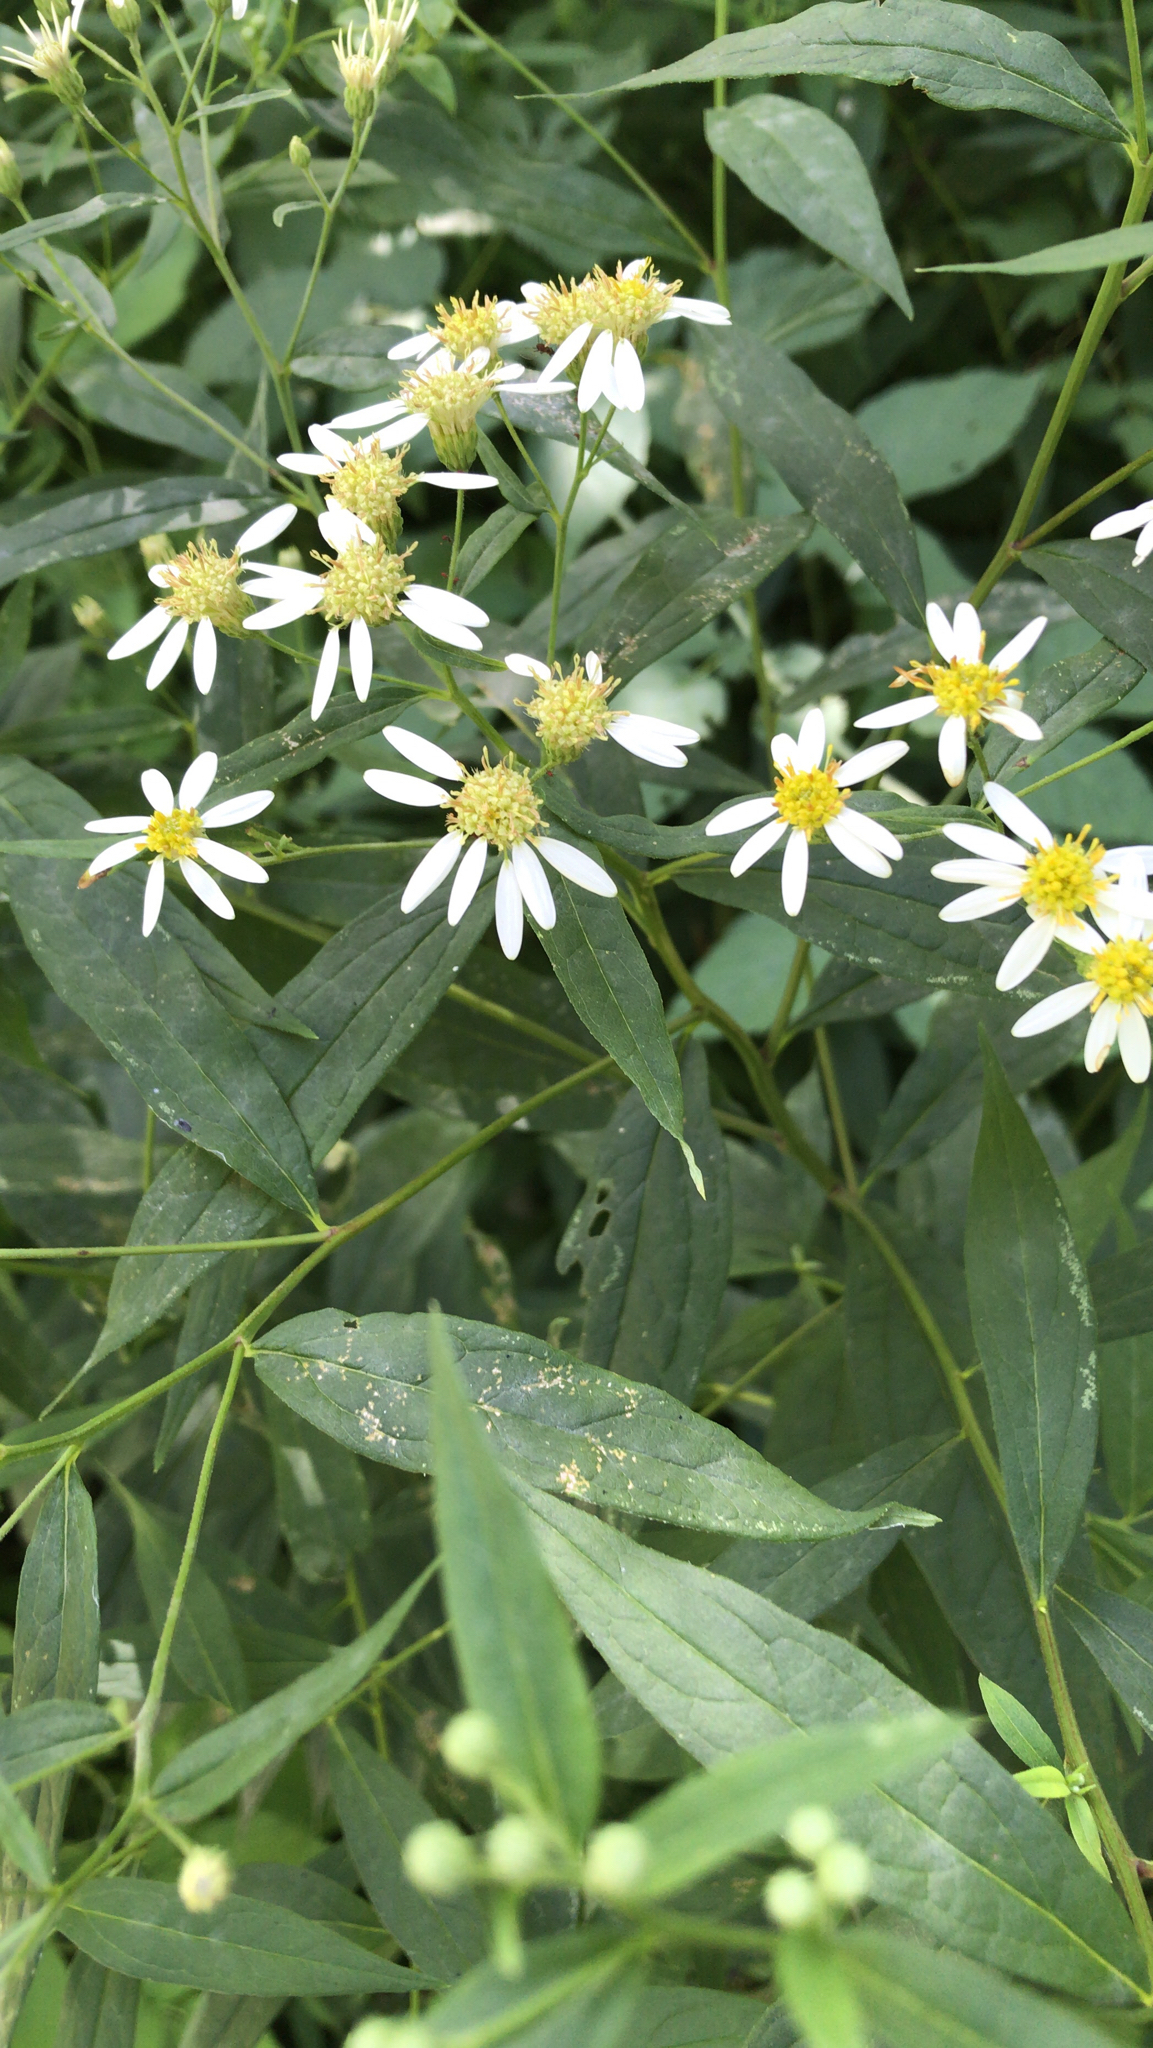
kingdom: Plantae
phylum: Tracheophyta
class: Magnoliopsida
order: Asterales
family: Asteraceae
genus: Doellingeria
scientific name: Doellingeria umbellata
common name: Flat-top white aster
